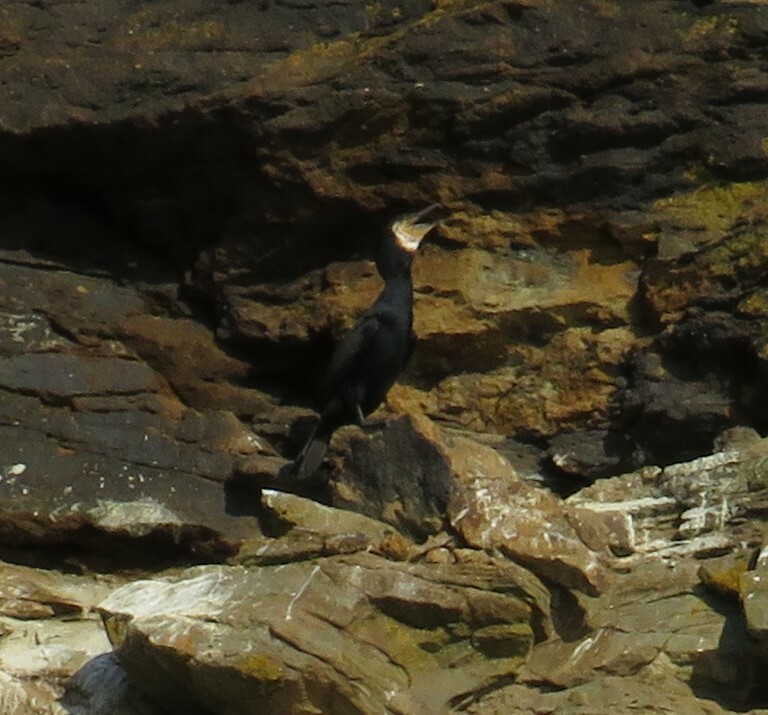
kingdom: Animalia
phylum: Chordata
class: Aves
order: Suliformes
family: Phalacrocoracidae
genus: Phalacrocorax
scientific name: Phalacrocorax carbo
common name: Great cormorant
